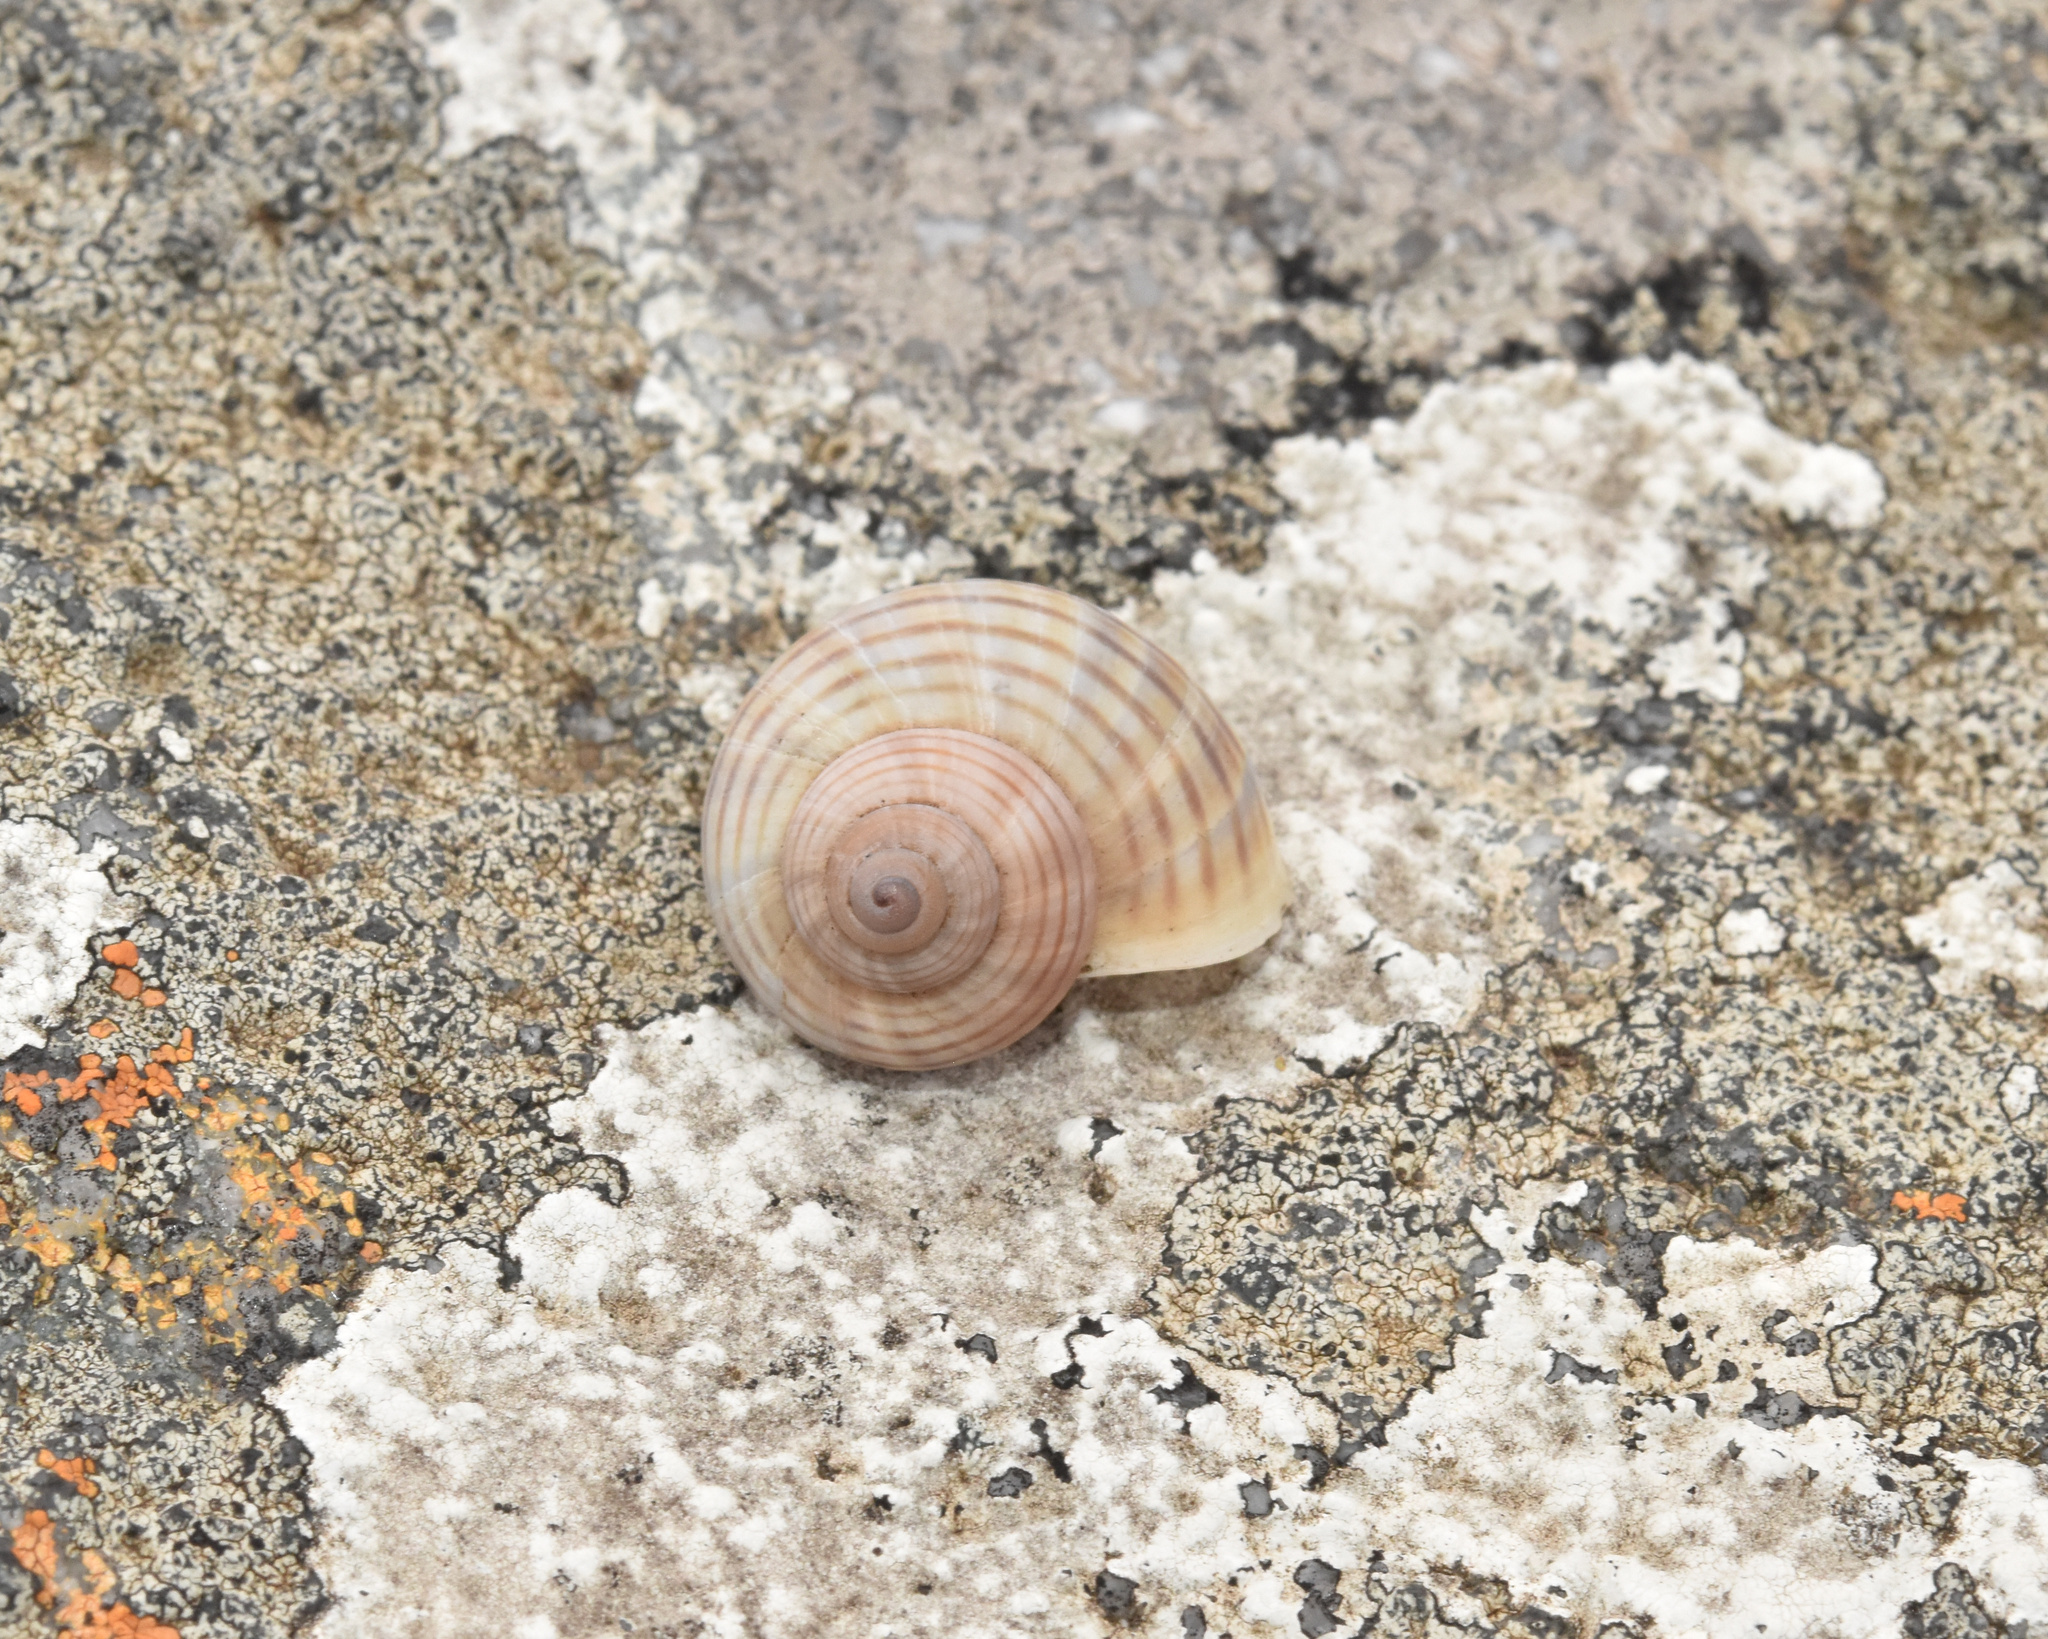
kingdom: Animalia
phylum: Mollusca
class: Gastropoda
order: Littorinimorpha
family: Pomatiidae
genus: Tropidophora
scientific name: Tropidophora ligata
